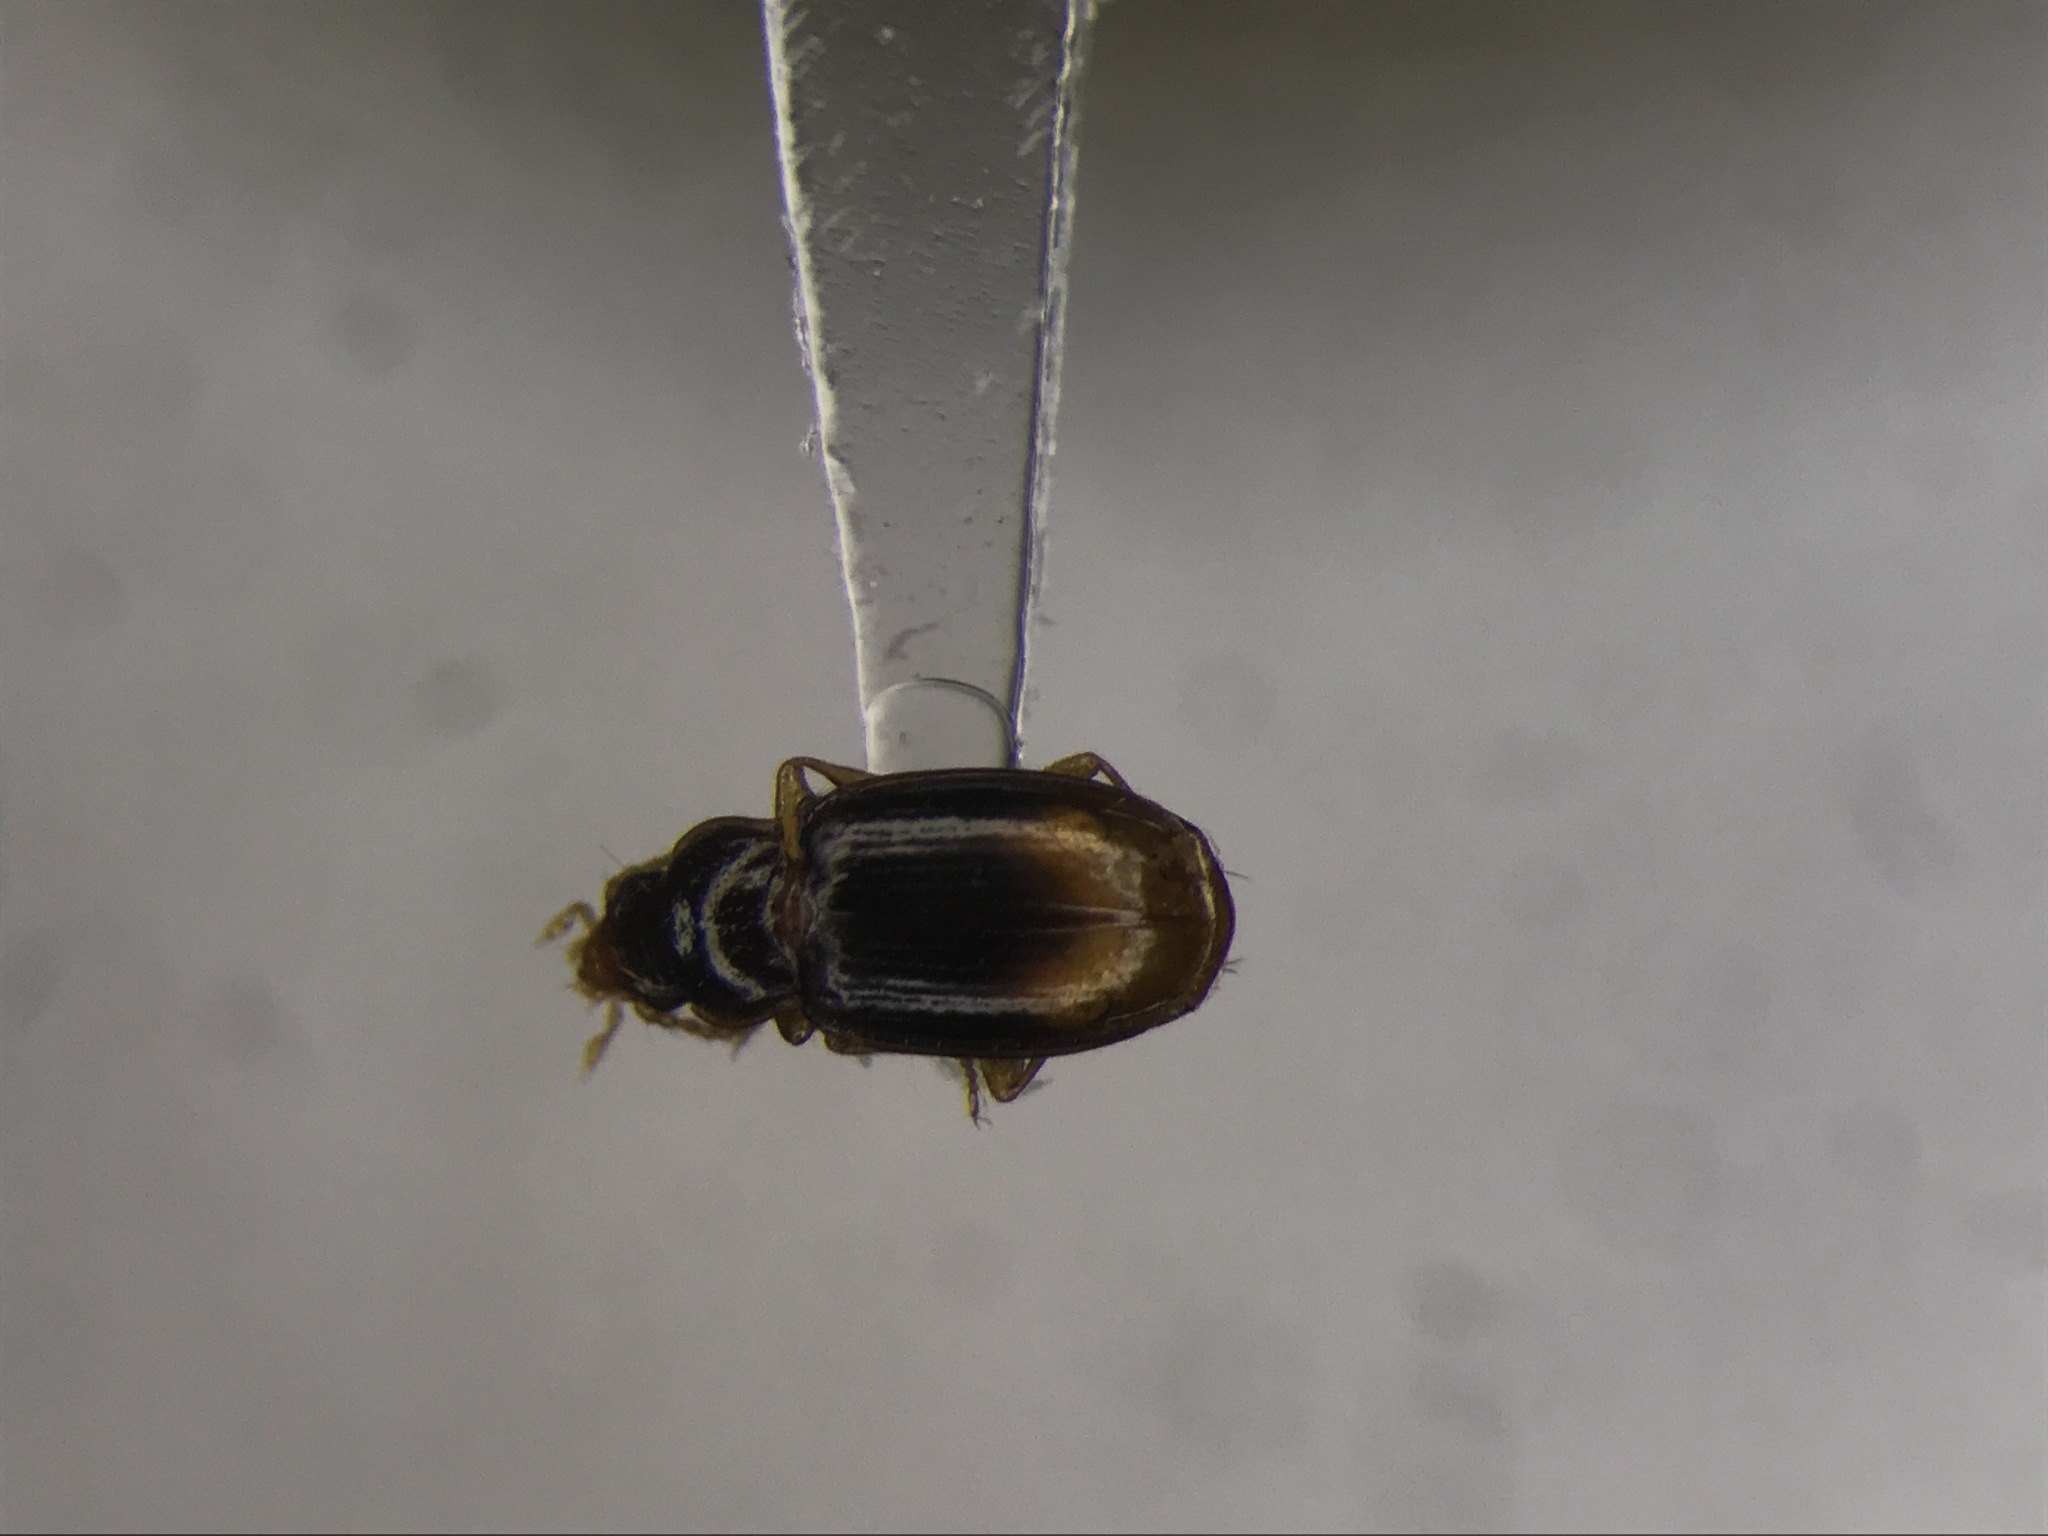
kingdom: Animalia
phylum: Arthropoda
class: Insecta
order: Coleoptera
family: Carabidae
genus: Mioptachys
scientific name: Mioptachys flavicauda
